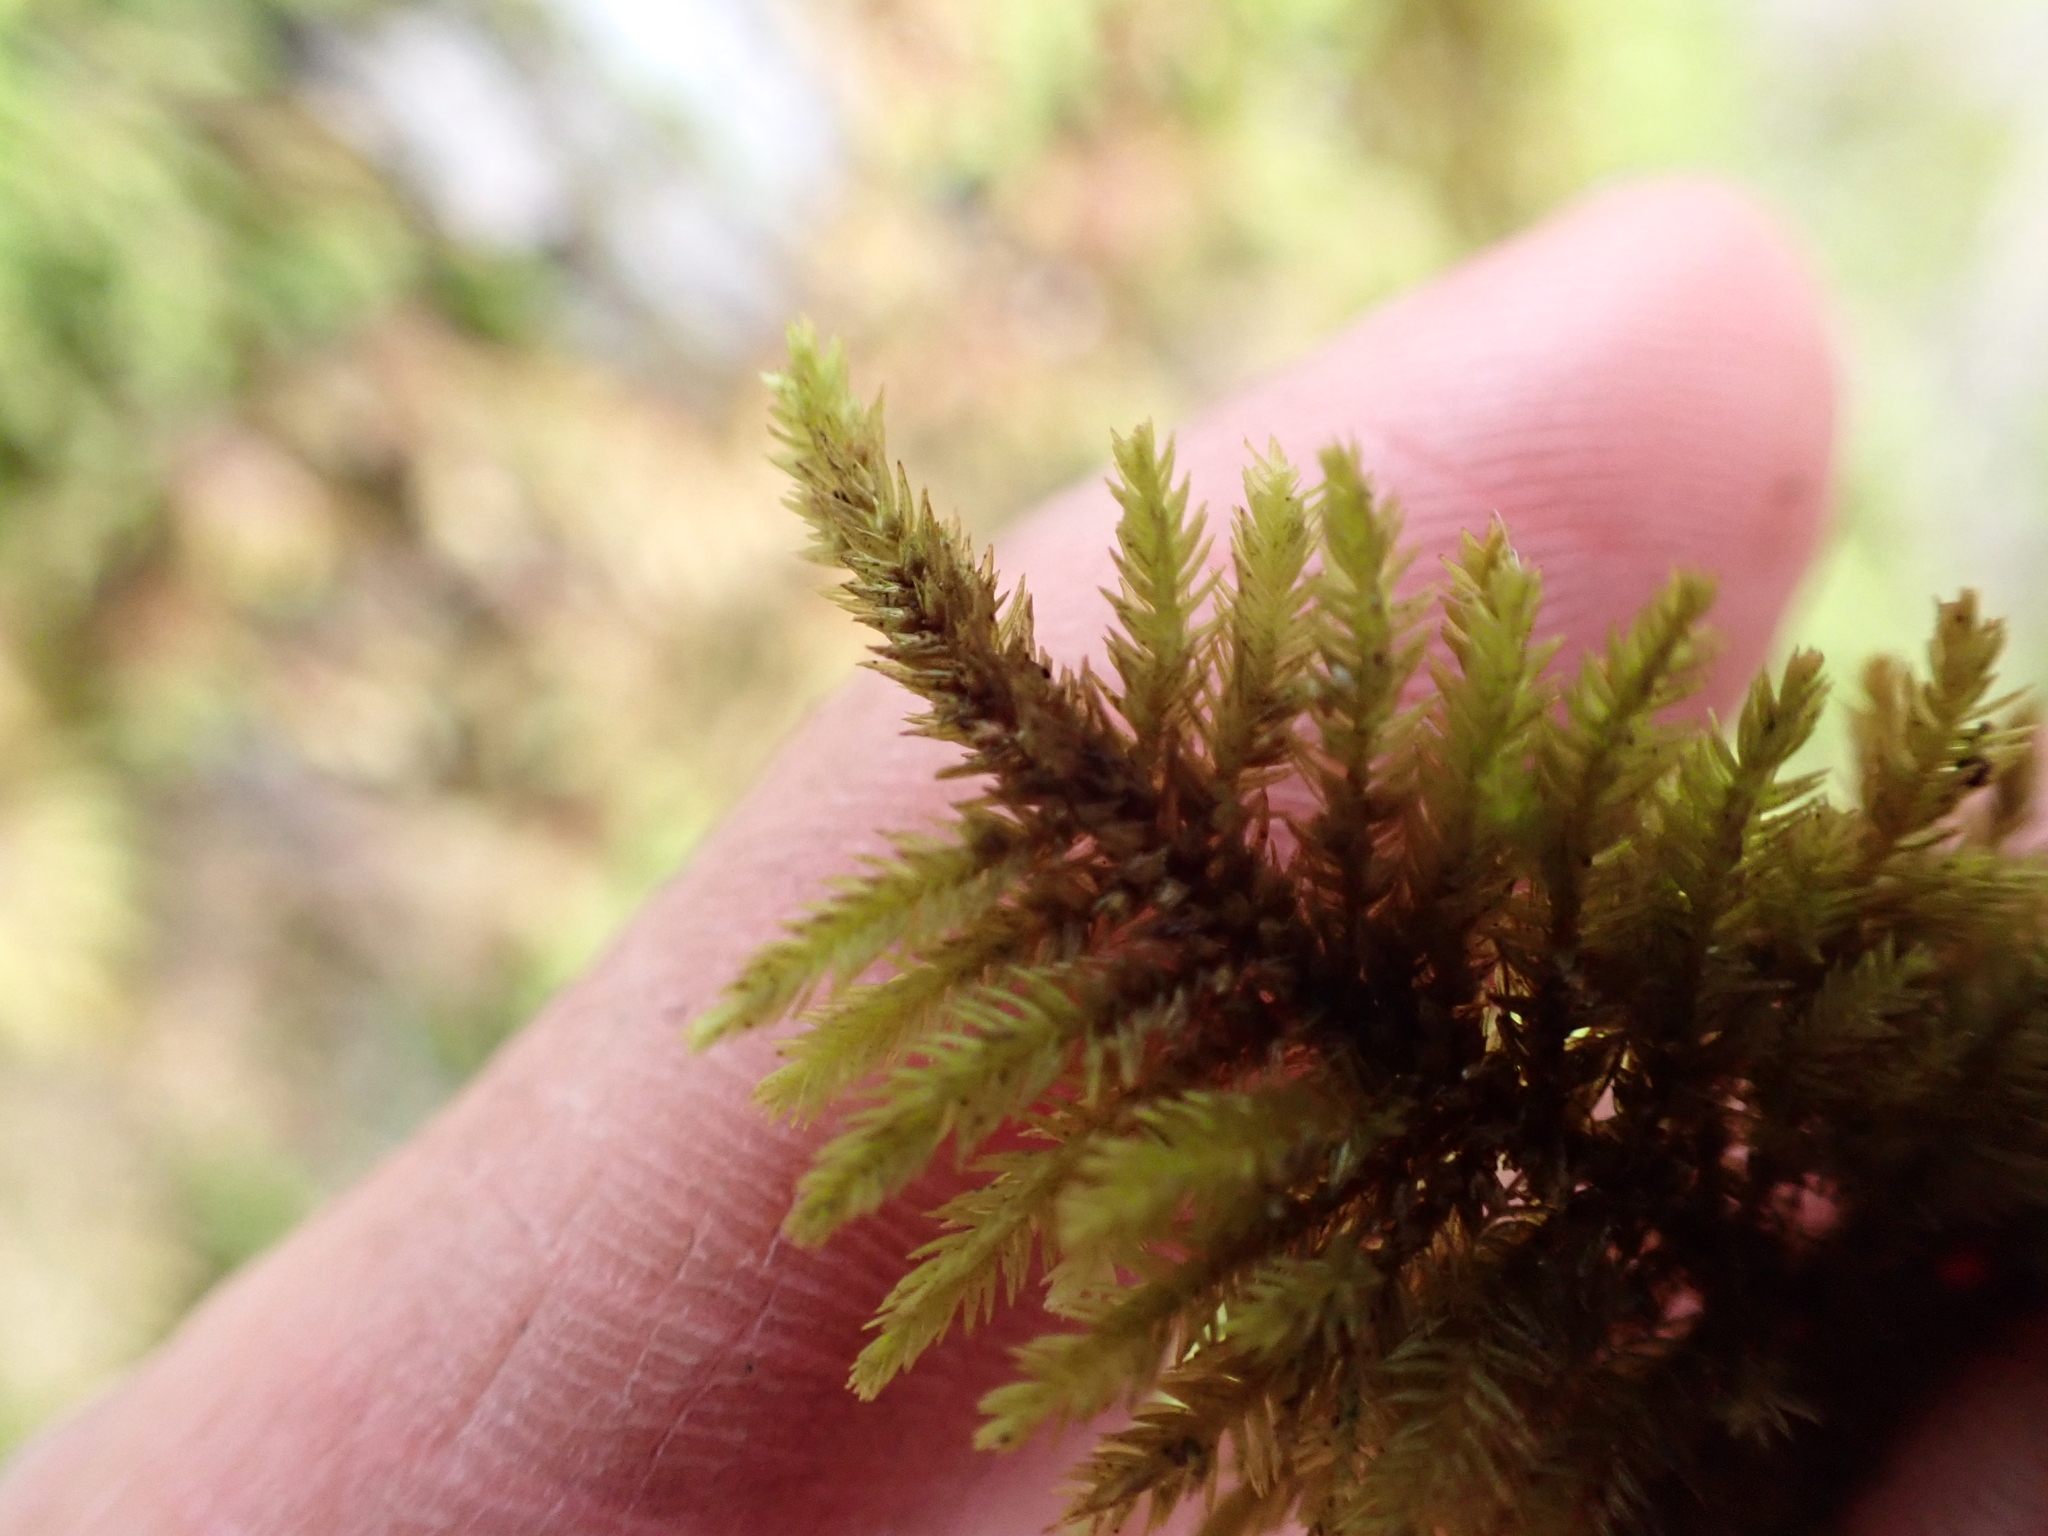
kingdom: Plantae
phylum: Bryophyta
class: Bryopsida
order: Hypnales
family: Cryphaeaceae
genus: Dendroalsia
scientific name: Dendroalsia abietina
